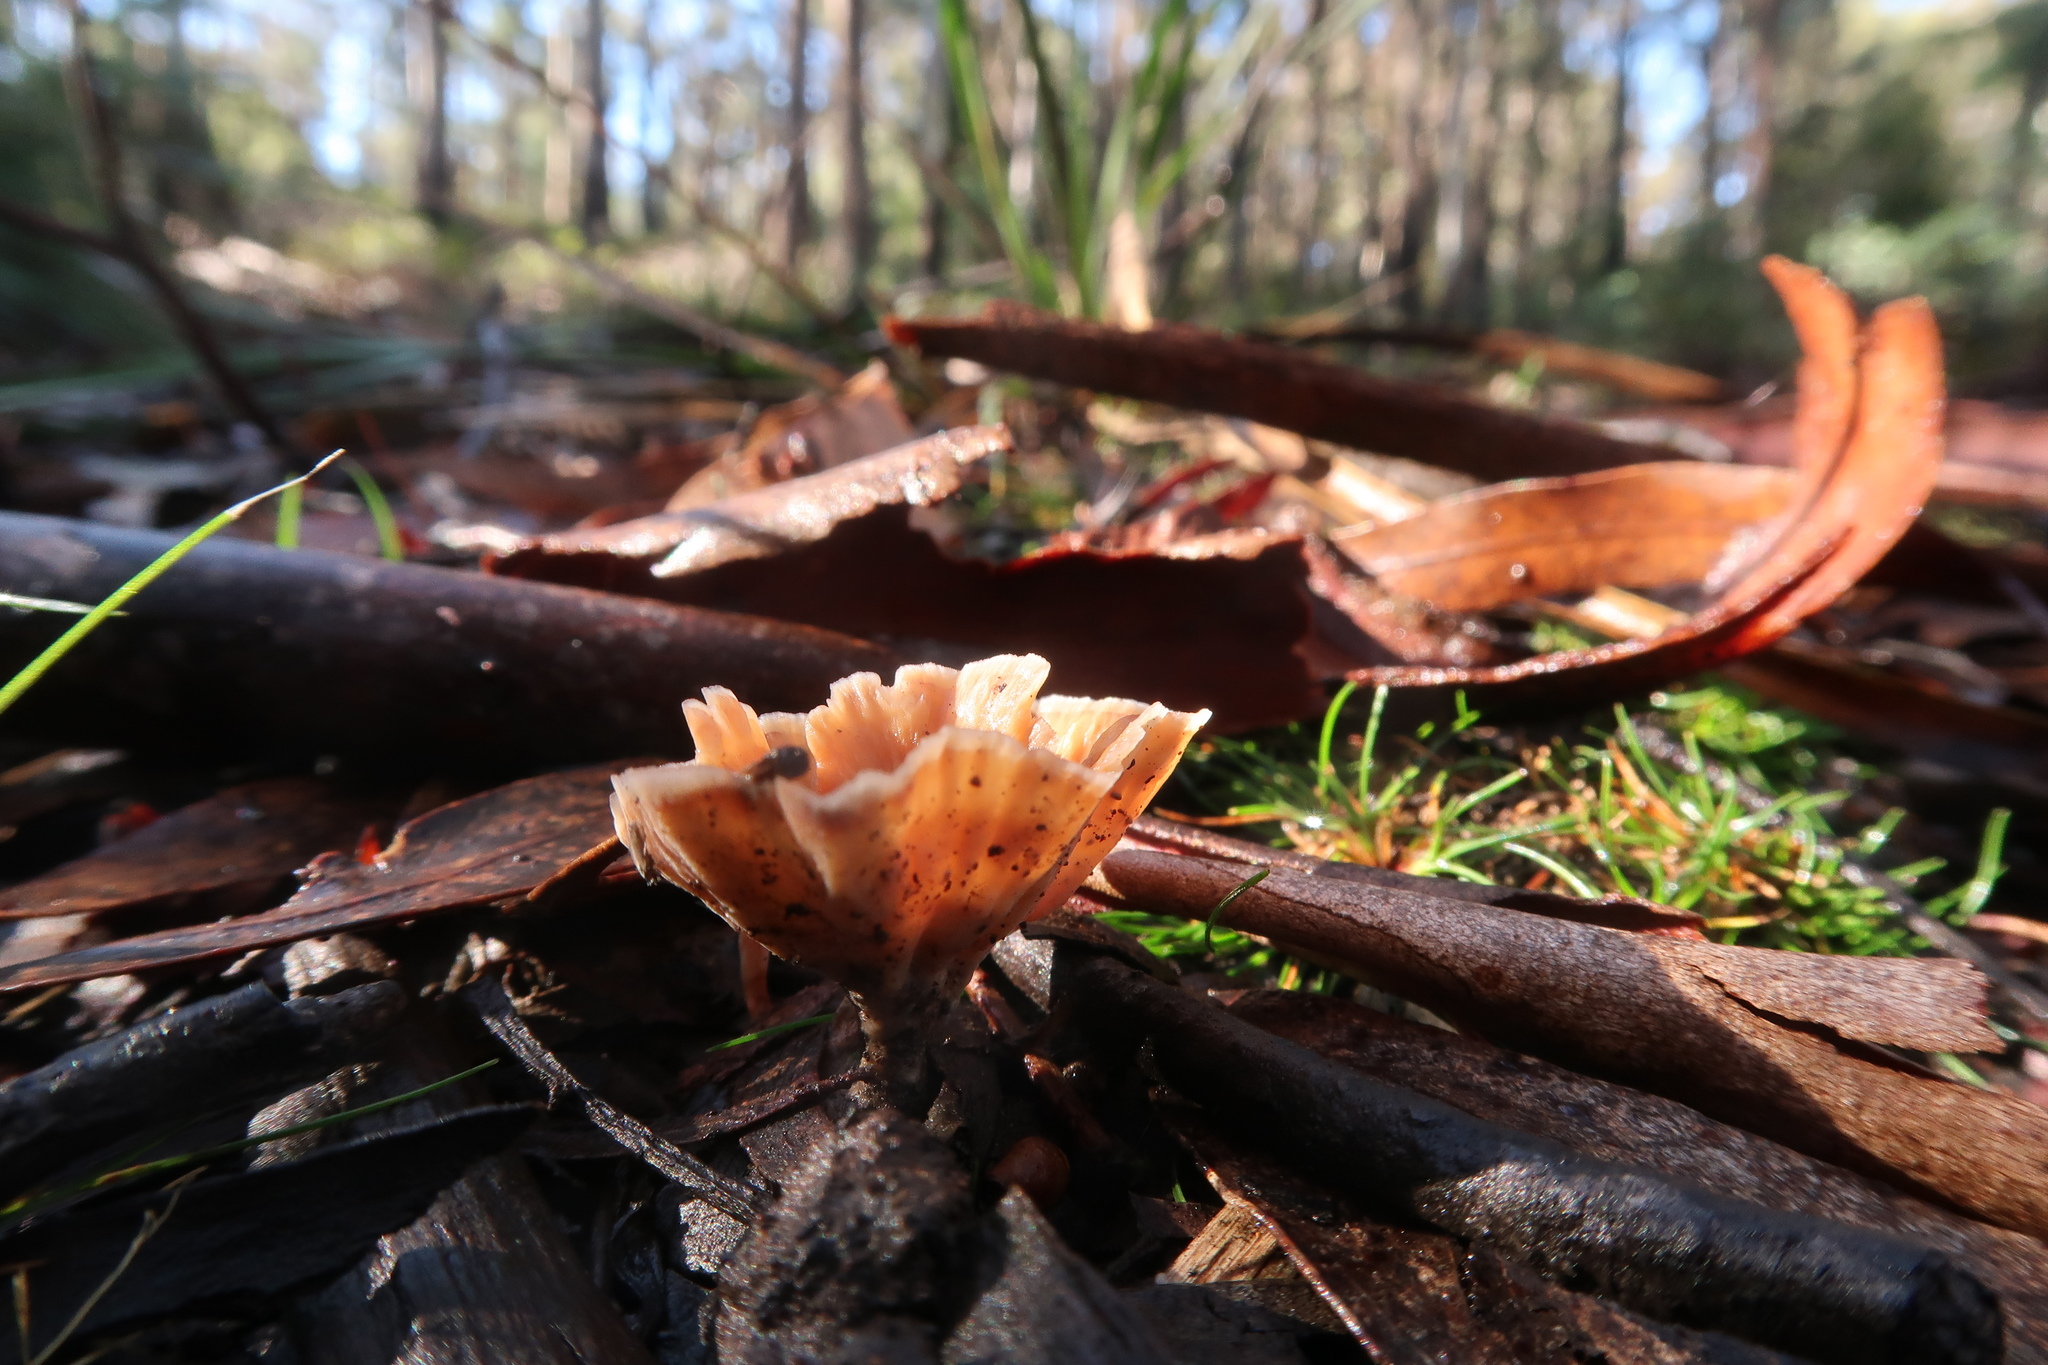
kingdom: Fungi
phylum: Basidiomycota
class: Agaricomycetes
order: Polyporales
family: Podoscyphaceae
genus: Podoscypha
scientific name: Podoscypha petalodes
